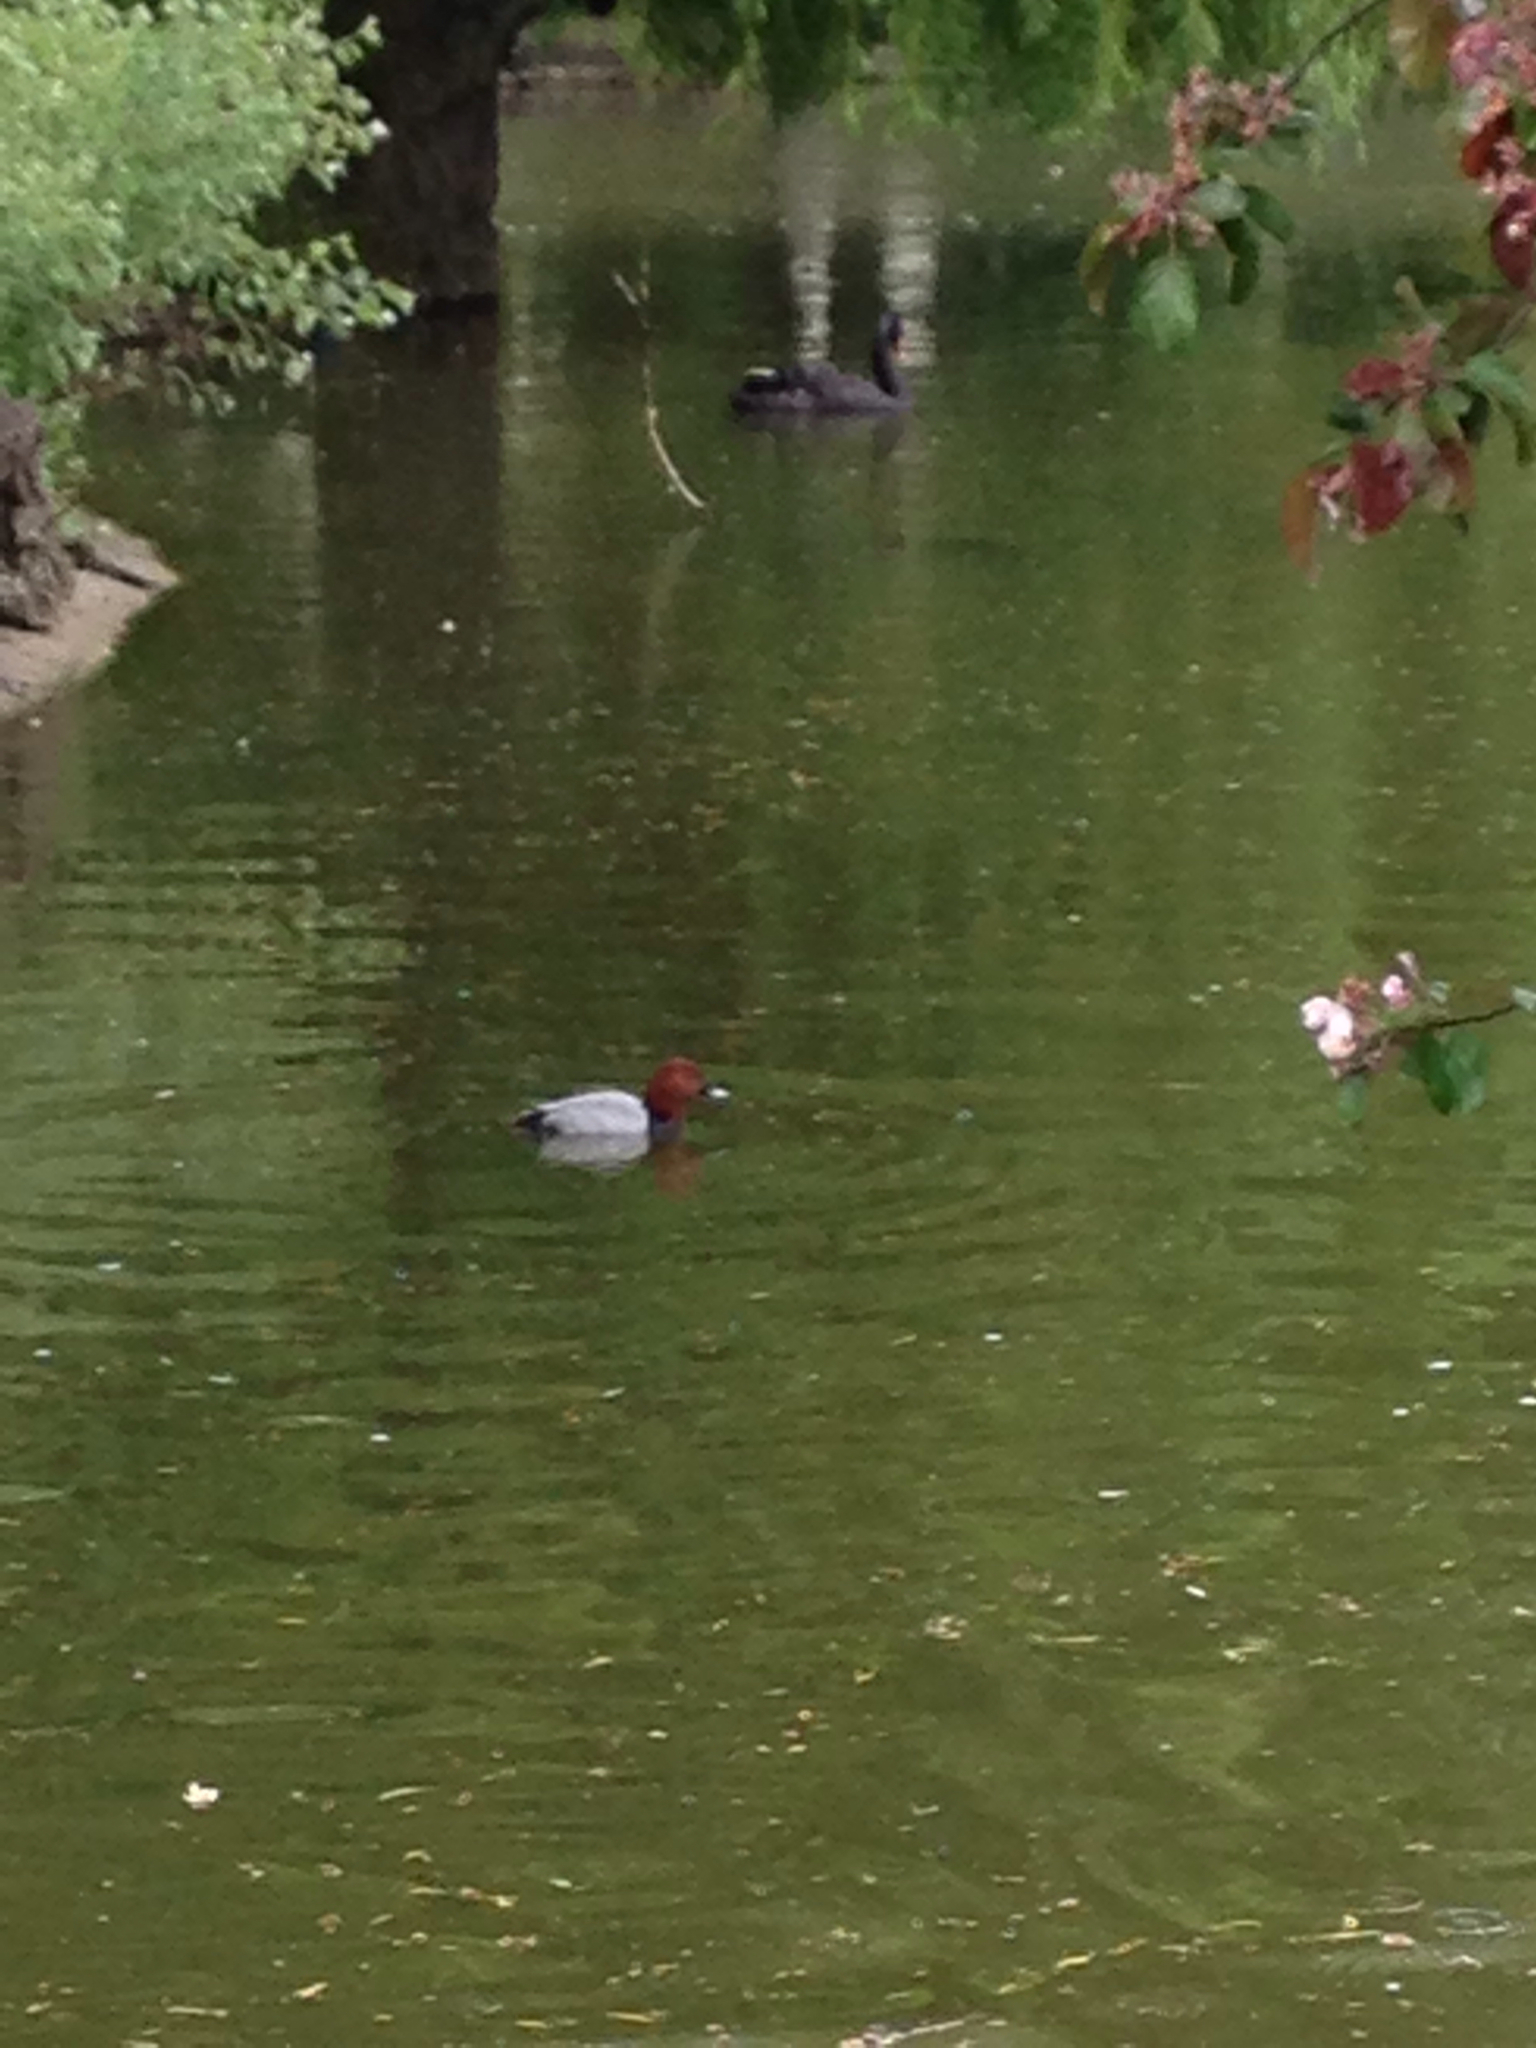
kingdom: Animalia
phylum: Chordata
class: Aves
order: Anseriformes
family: Anatidae
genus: Aythya
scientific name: Aythya ferina
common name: Common pochard
